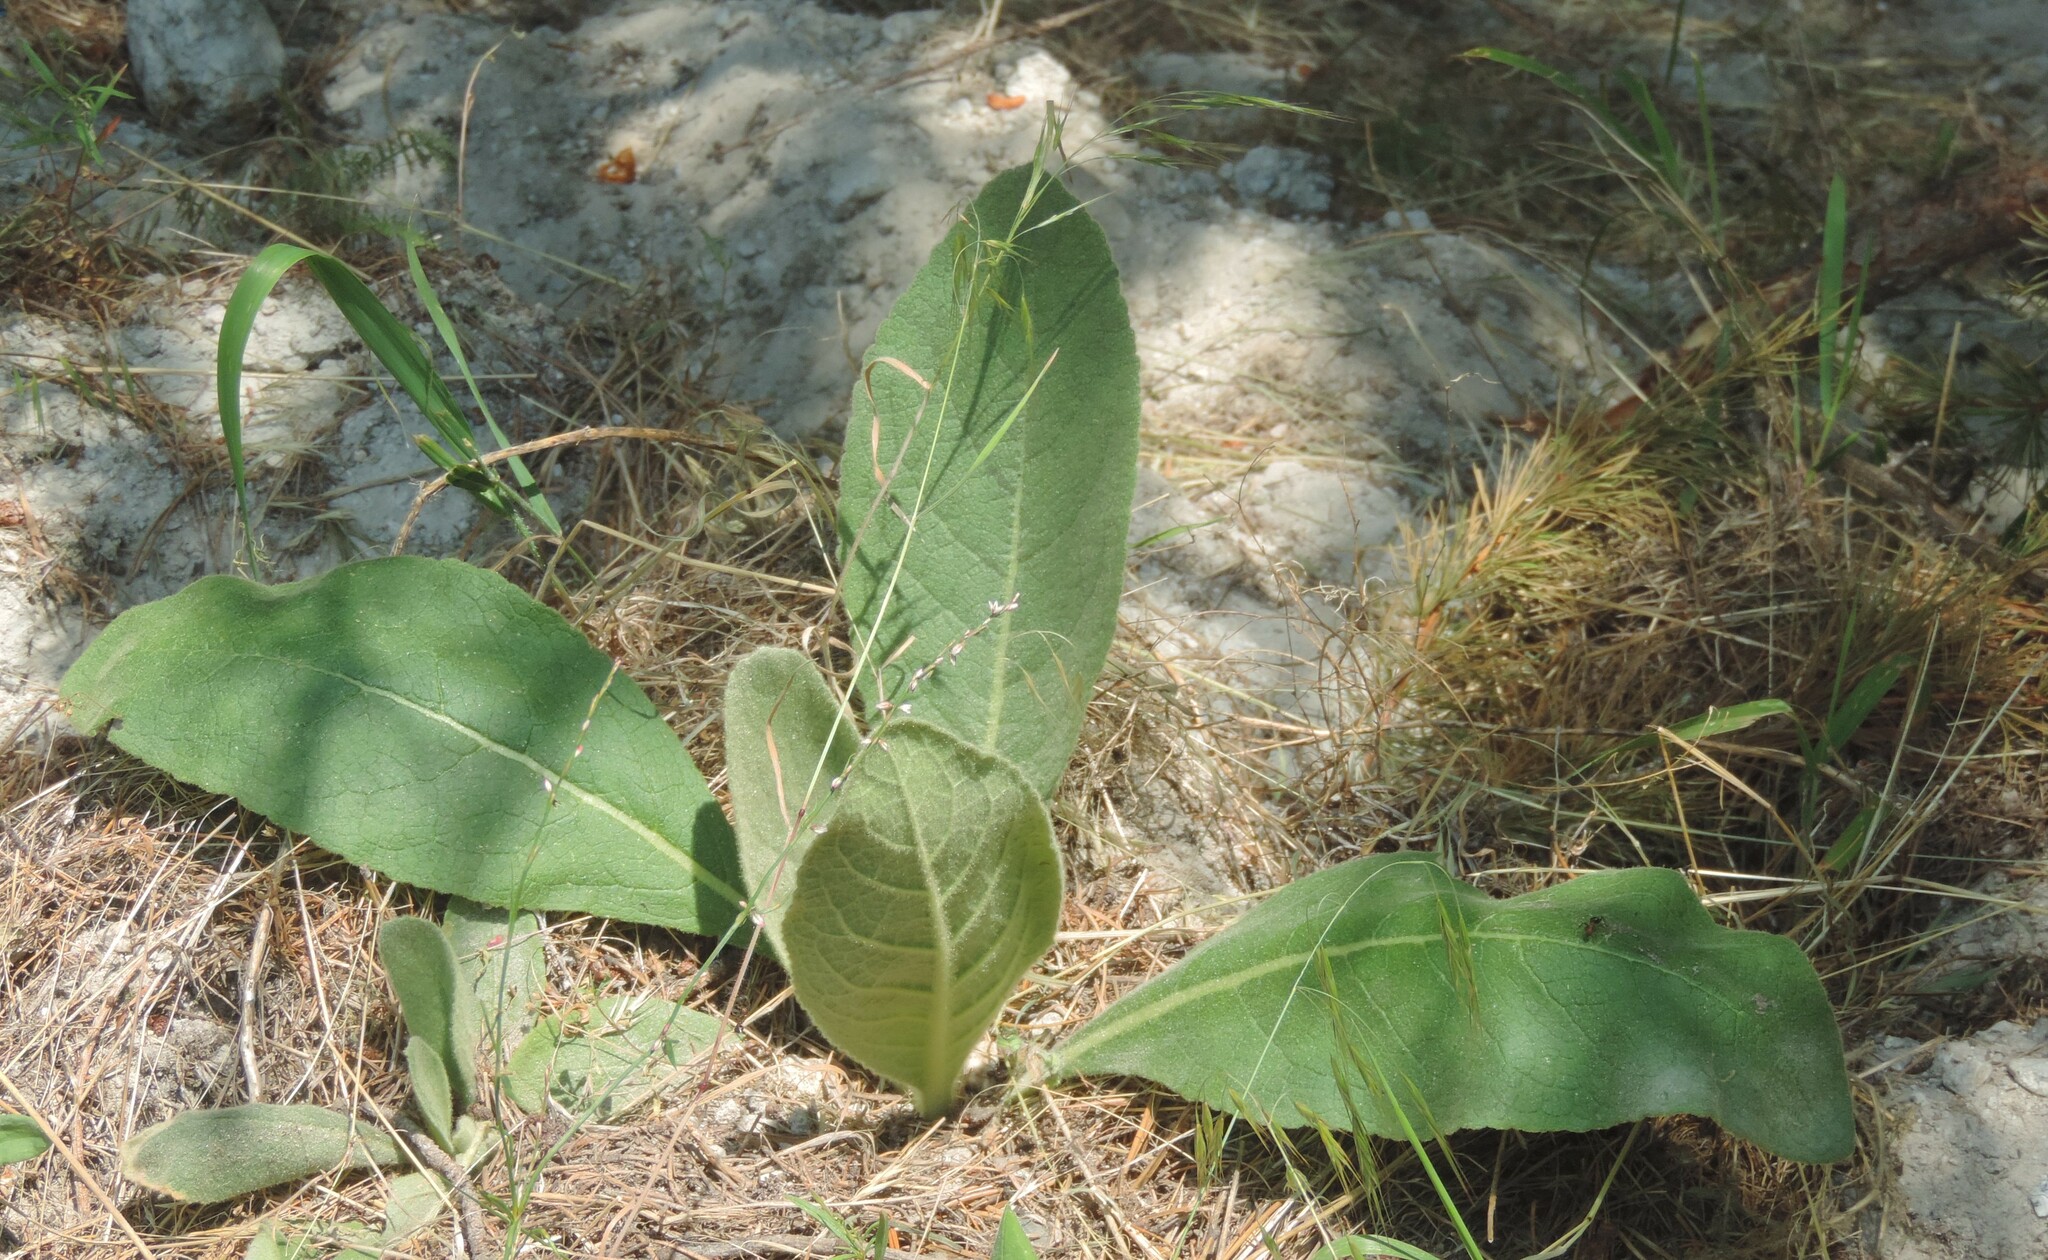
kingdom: Plantae
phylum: Tracheophyta
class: Magnoliopsida
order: Lamiales
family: Scrophulariaceae
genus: Verbascum
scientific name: Verbascum thapsus
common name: Common mullein
